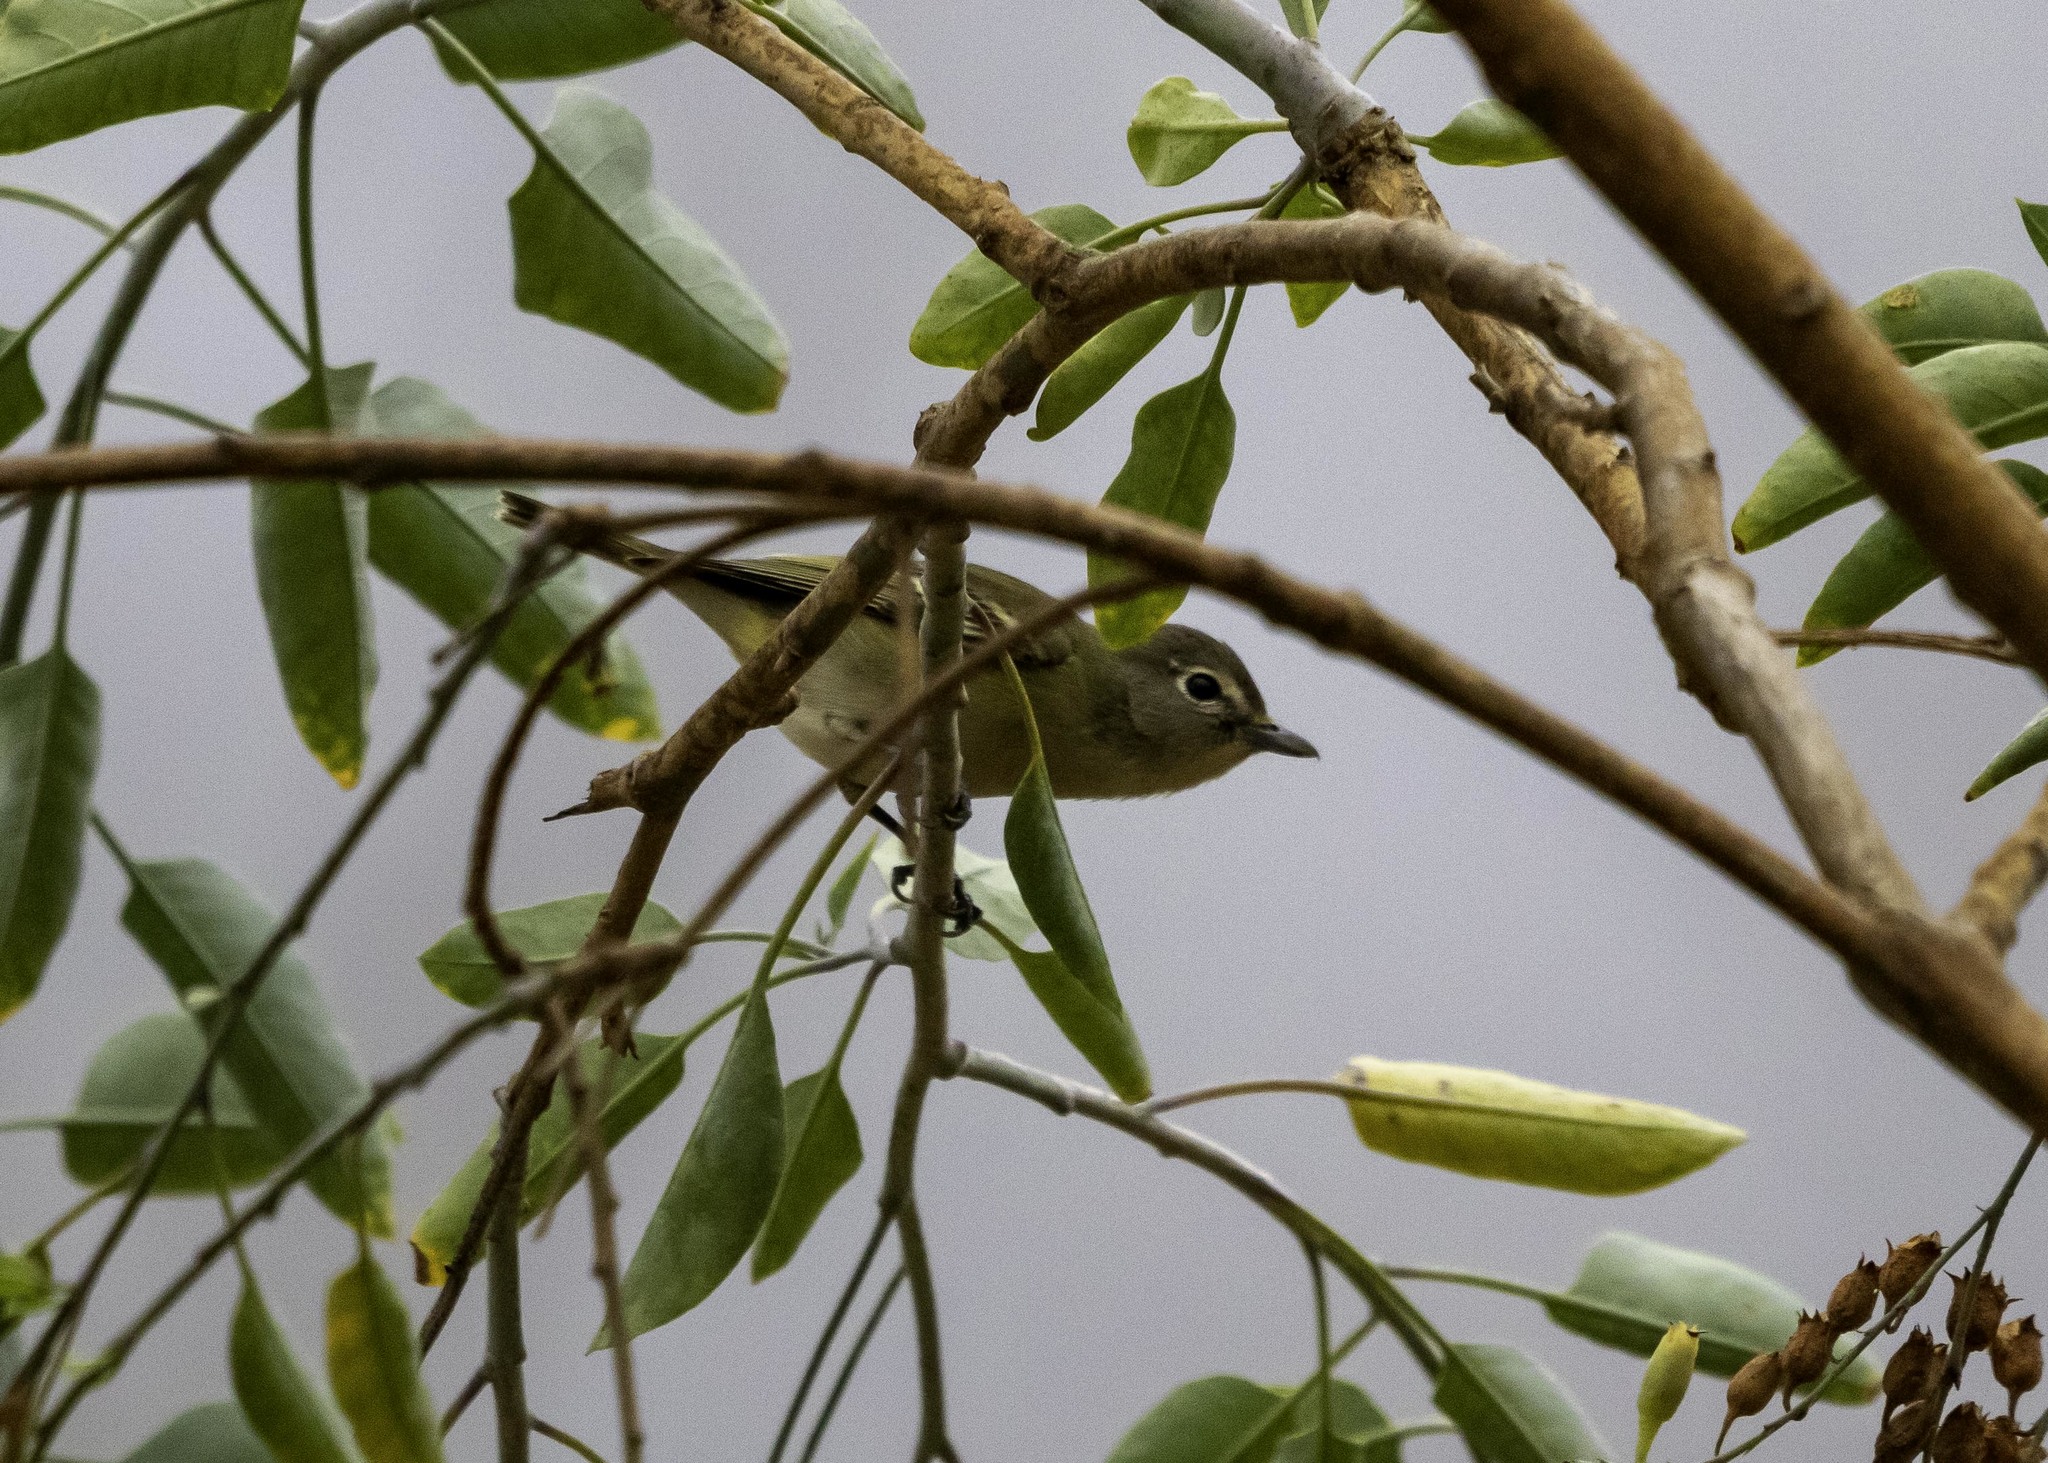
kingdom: Animalia
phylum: Chordata
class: Aves
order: Passeriformes
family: Vireonidae
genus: Vireo
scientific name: Vireo cassinii
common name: Cassin's vireo
